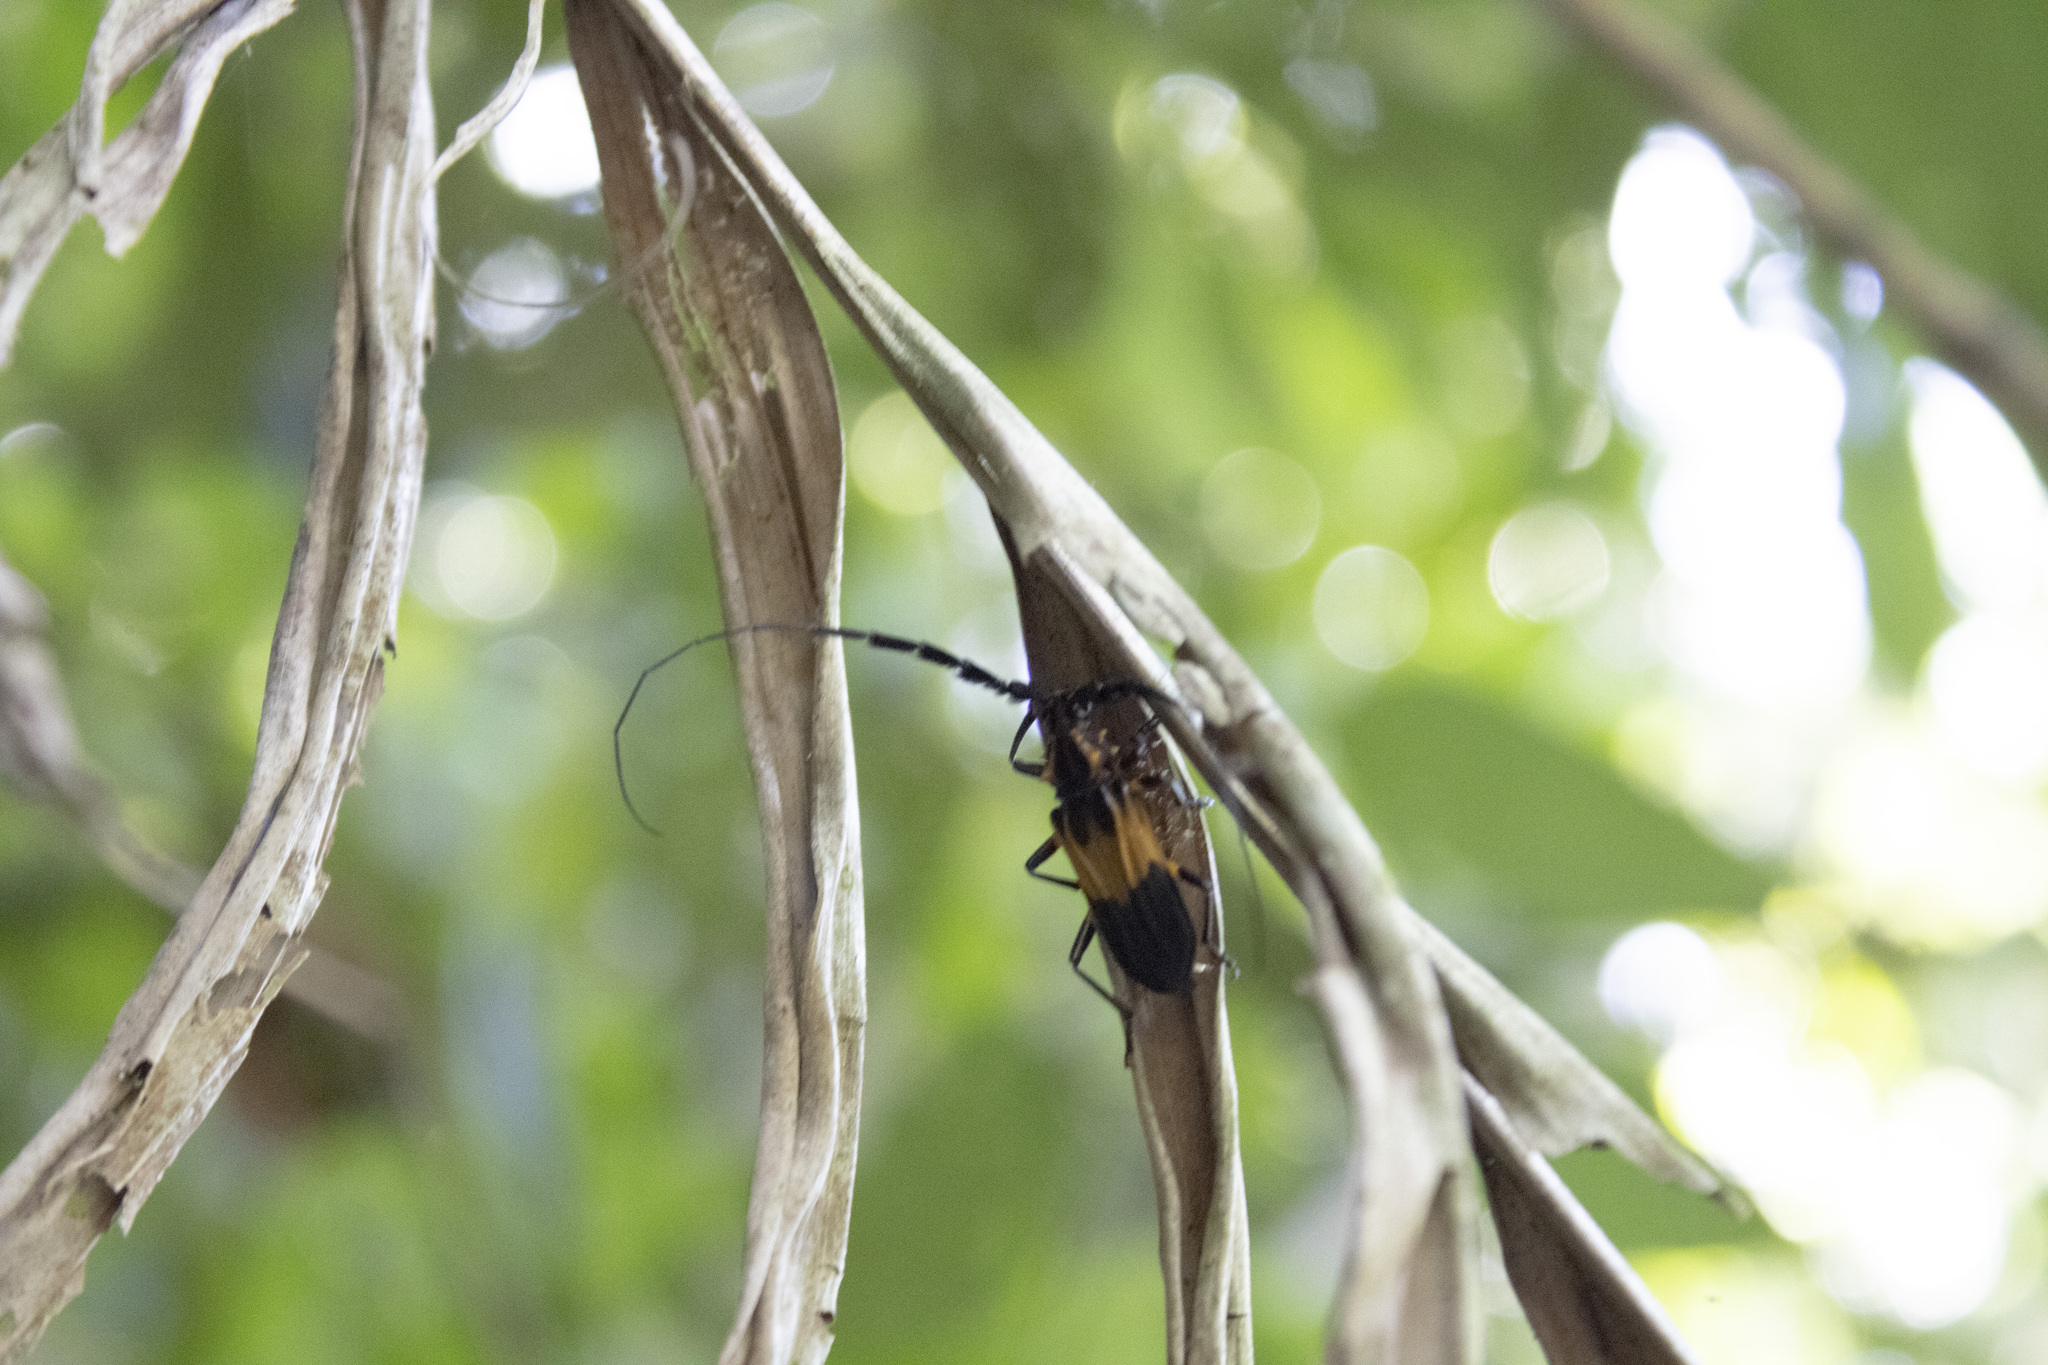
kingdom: Animalia
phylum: Arthropoda
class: Insecta
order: Coleoptera
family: Cerambycidae
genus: Batus
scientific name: Batus hirticornis
